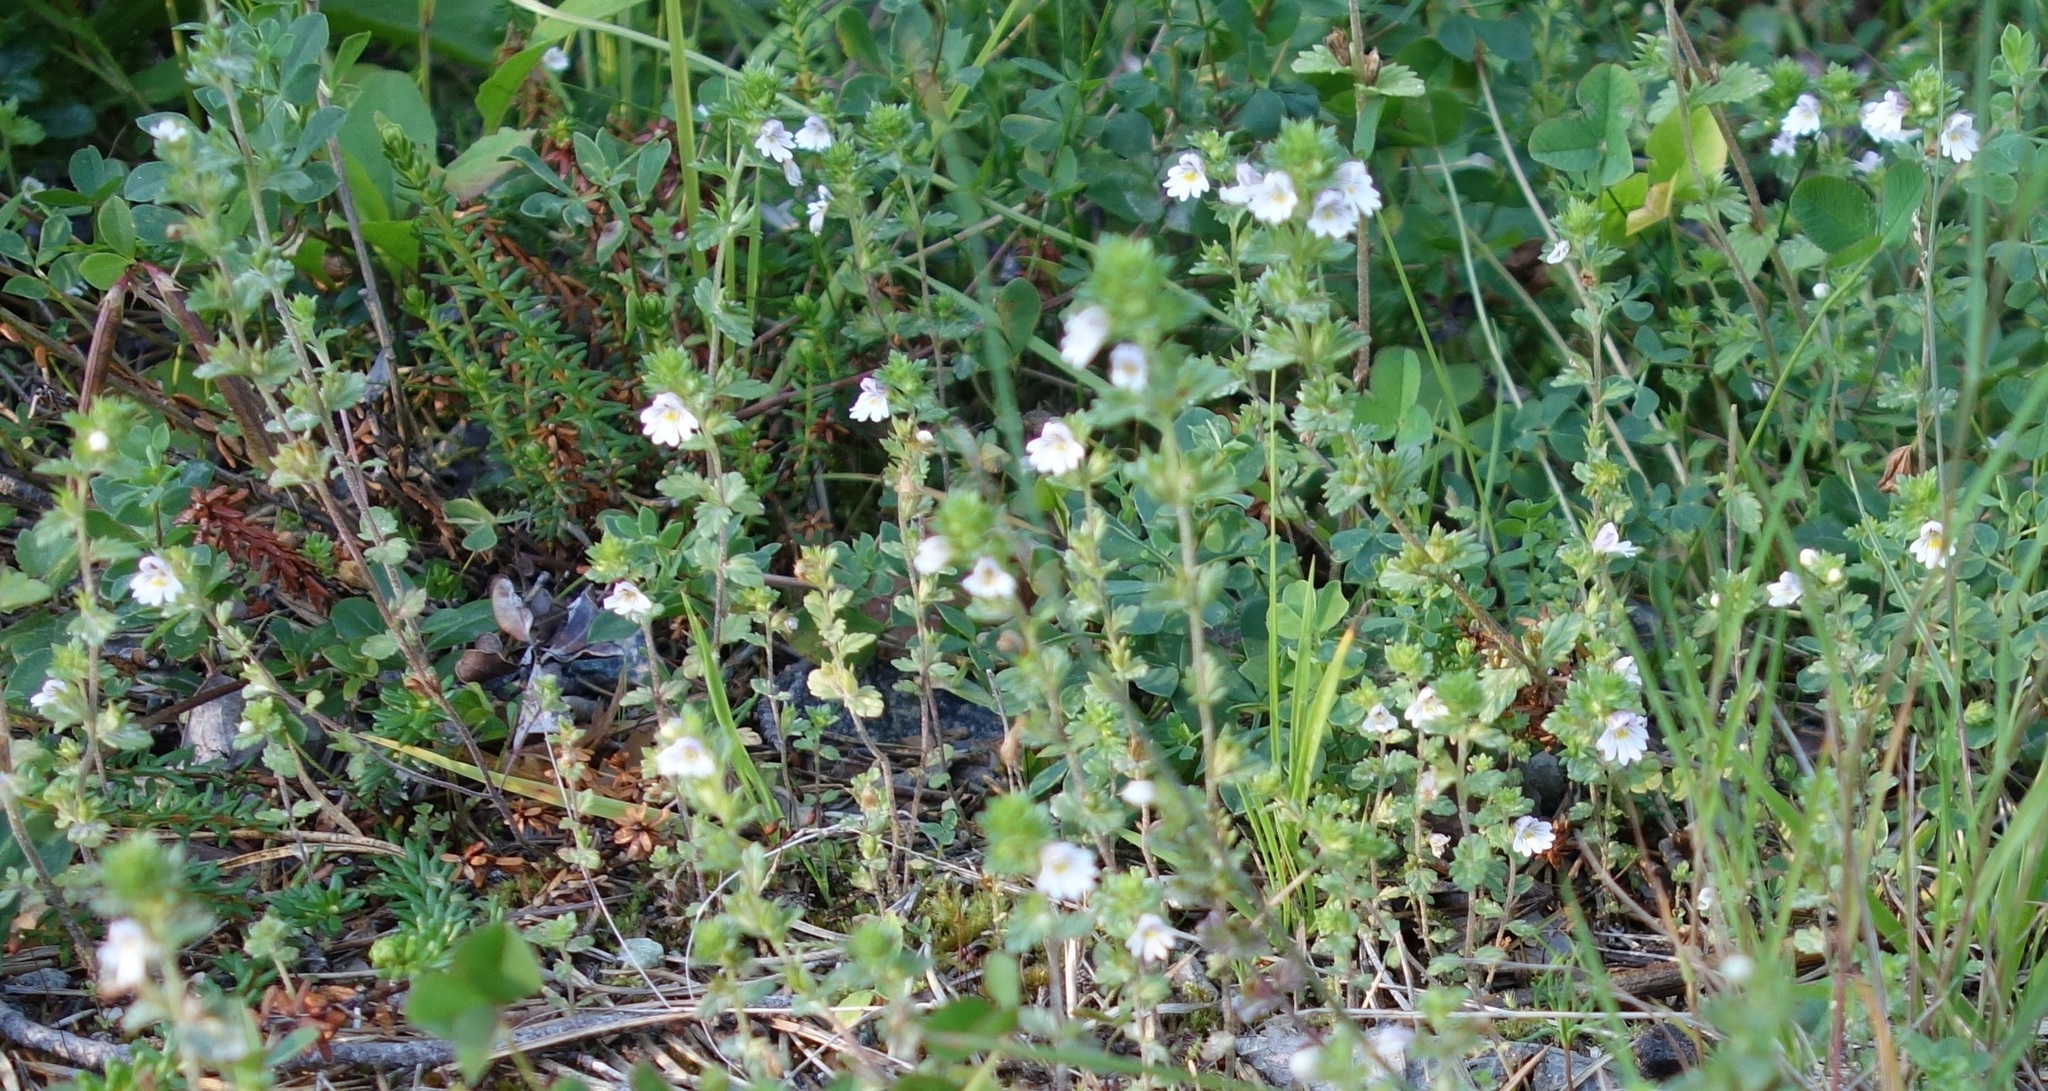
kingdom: Plantae
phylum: Tracheophyta
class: Magnoliopsida
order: Lamiales
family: Orobanchaceae
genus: Euphrasia
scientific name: Euphrasia officinalis
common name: Eyebright
